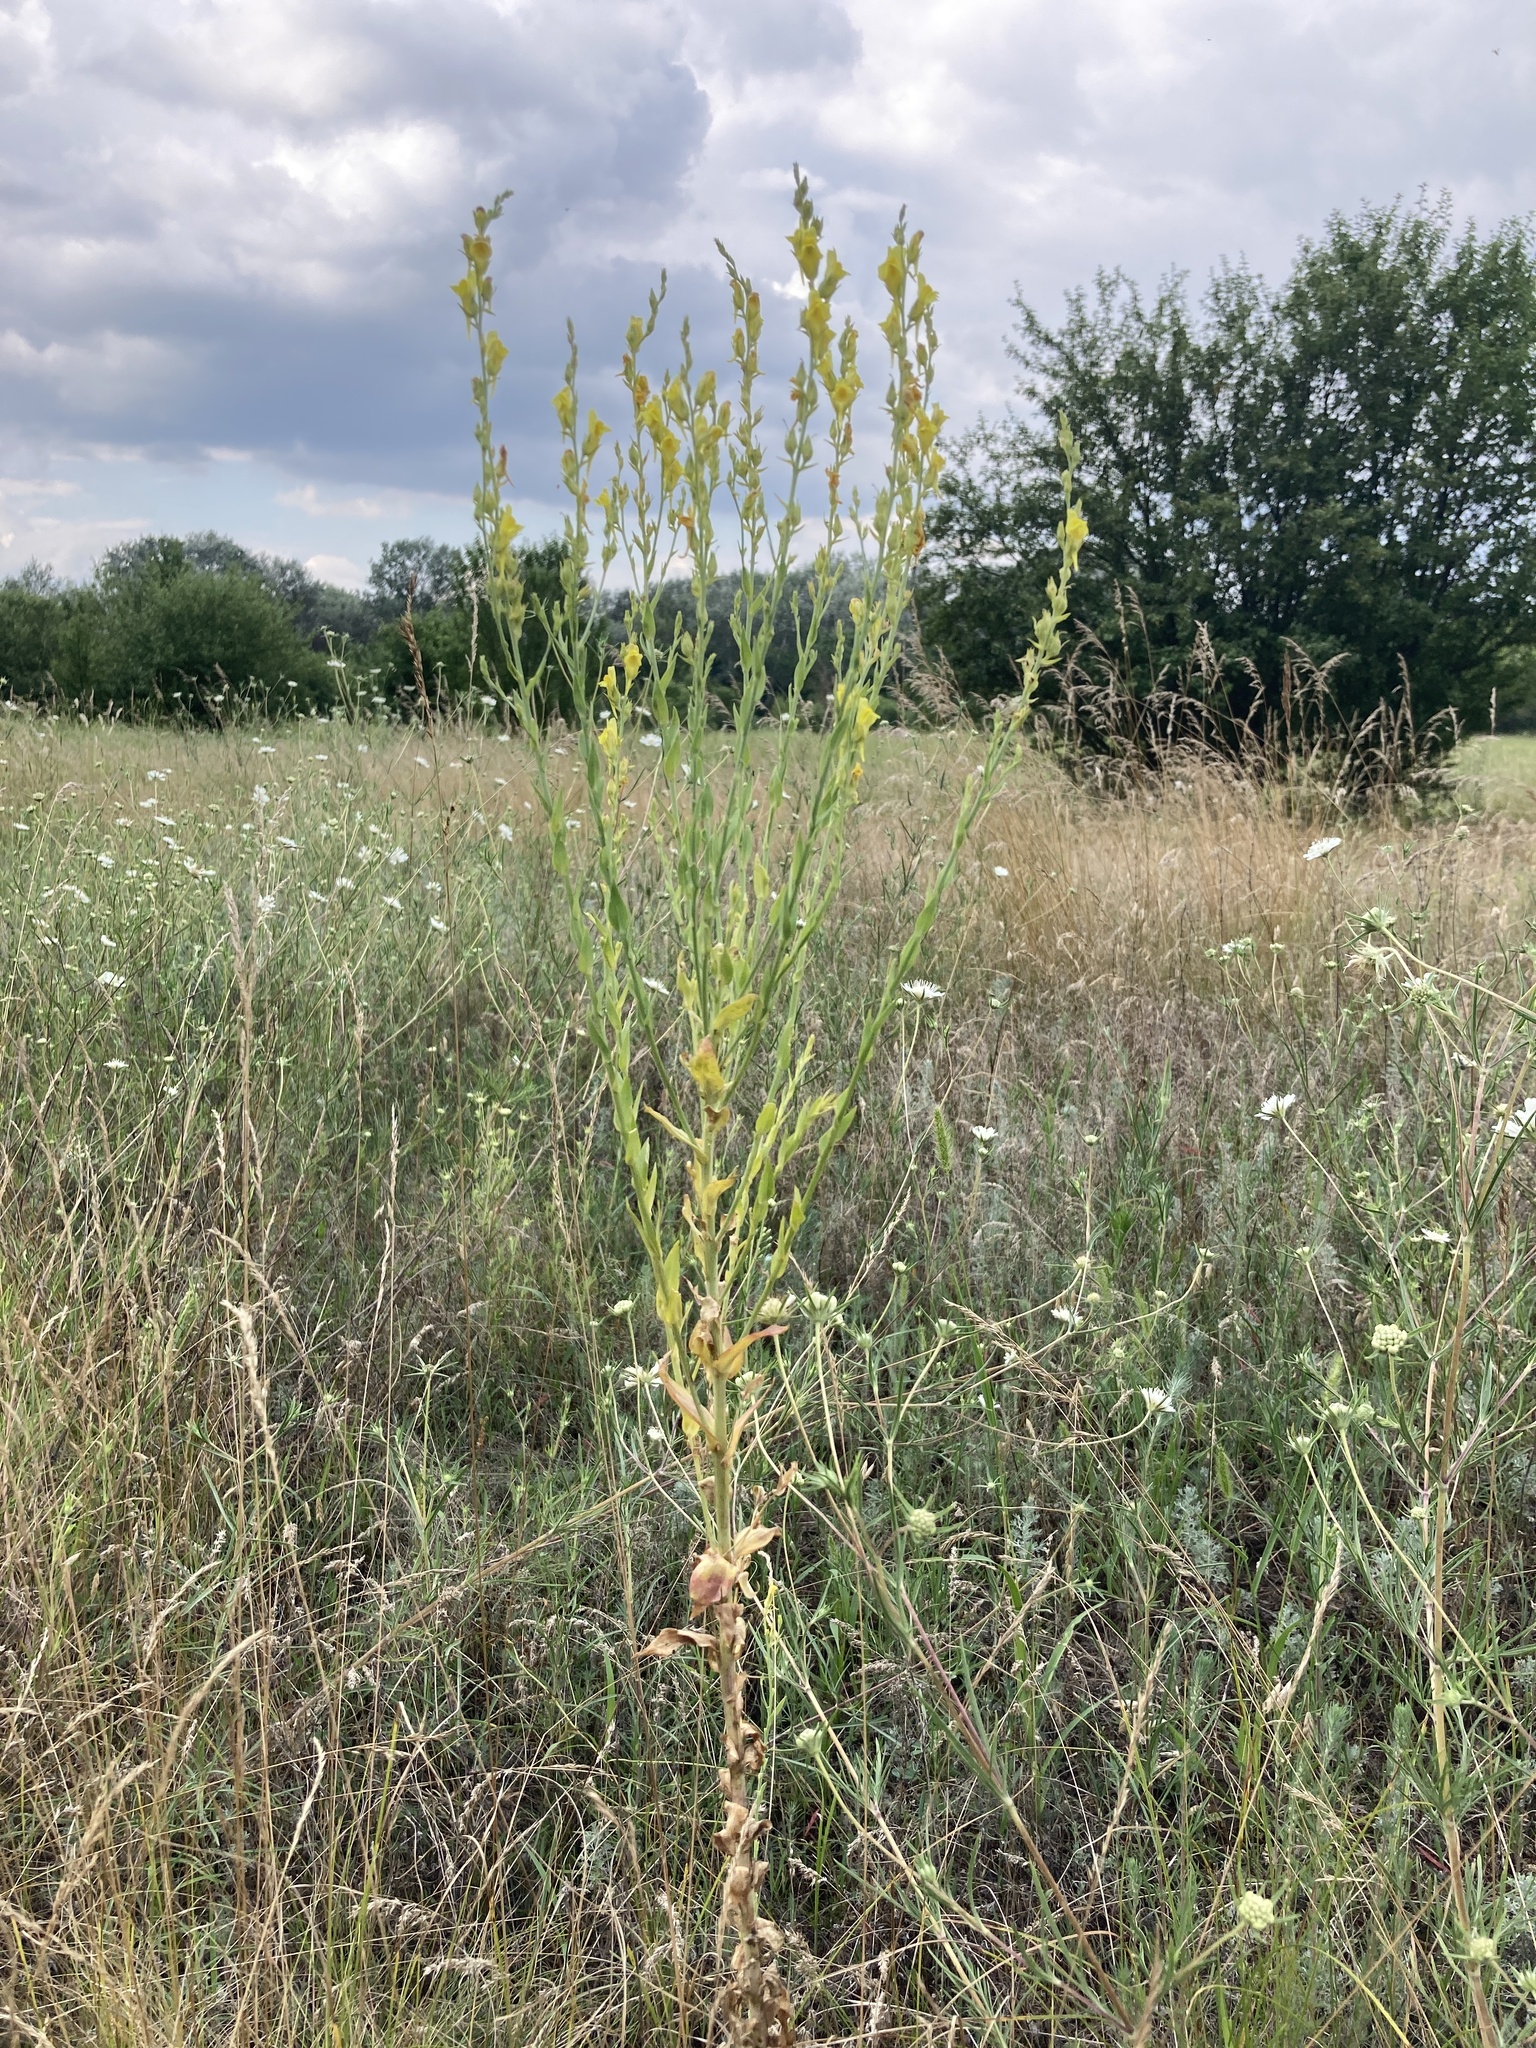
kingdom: Plantae
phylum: Tracheophyta
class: Magnoliopsida
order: Lamiales
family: Plantaginaceae
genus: Linaria
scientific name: Linaria genistifolia
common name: Broomleaf toadflax
